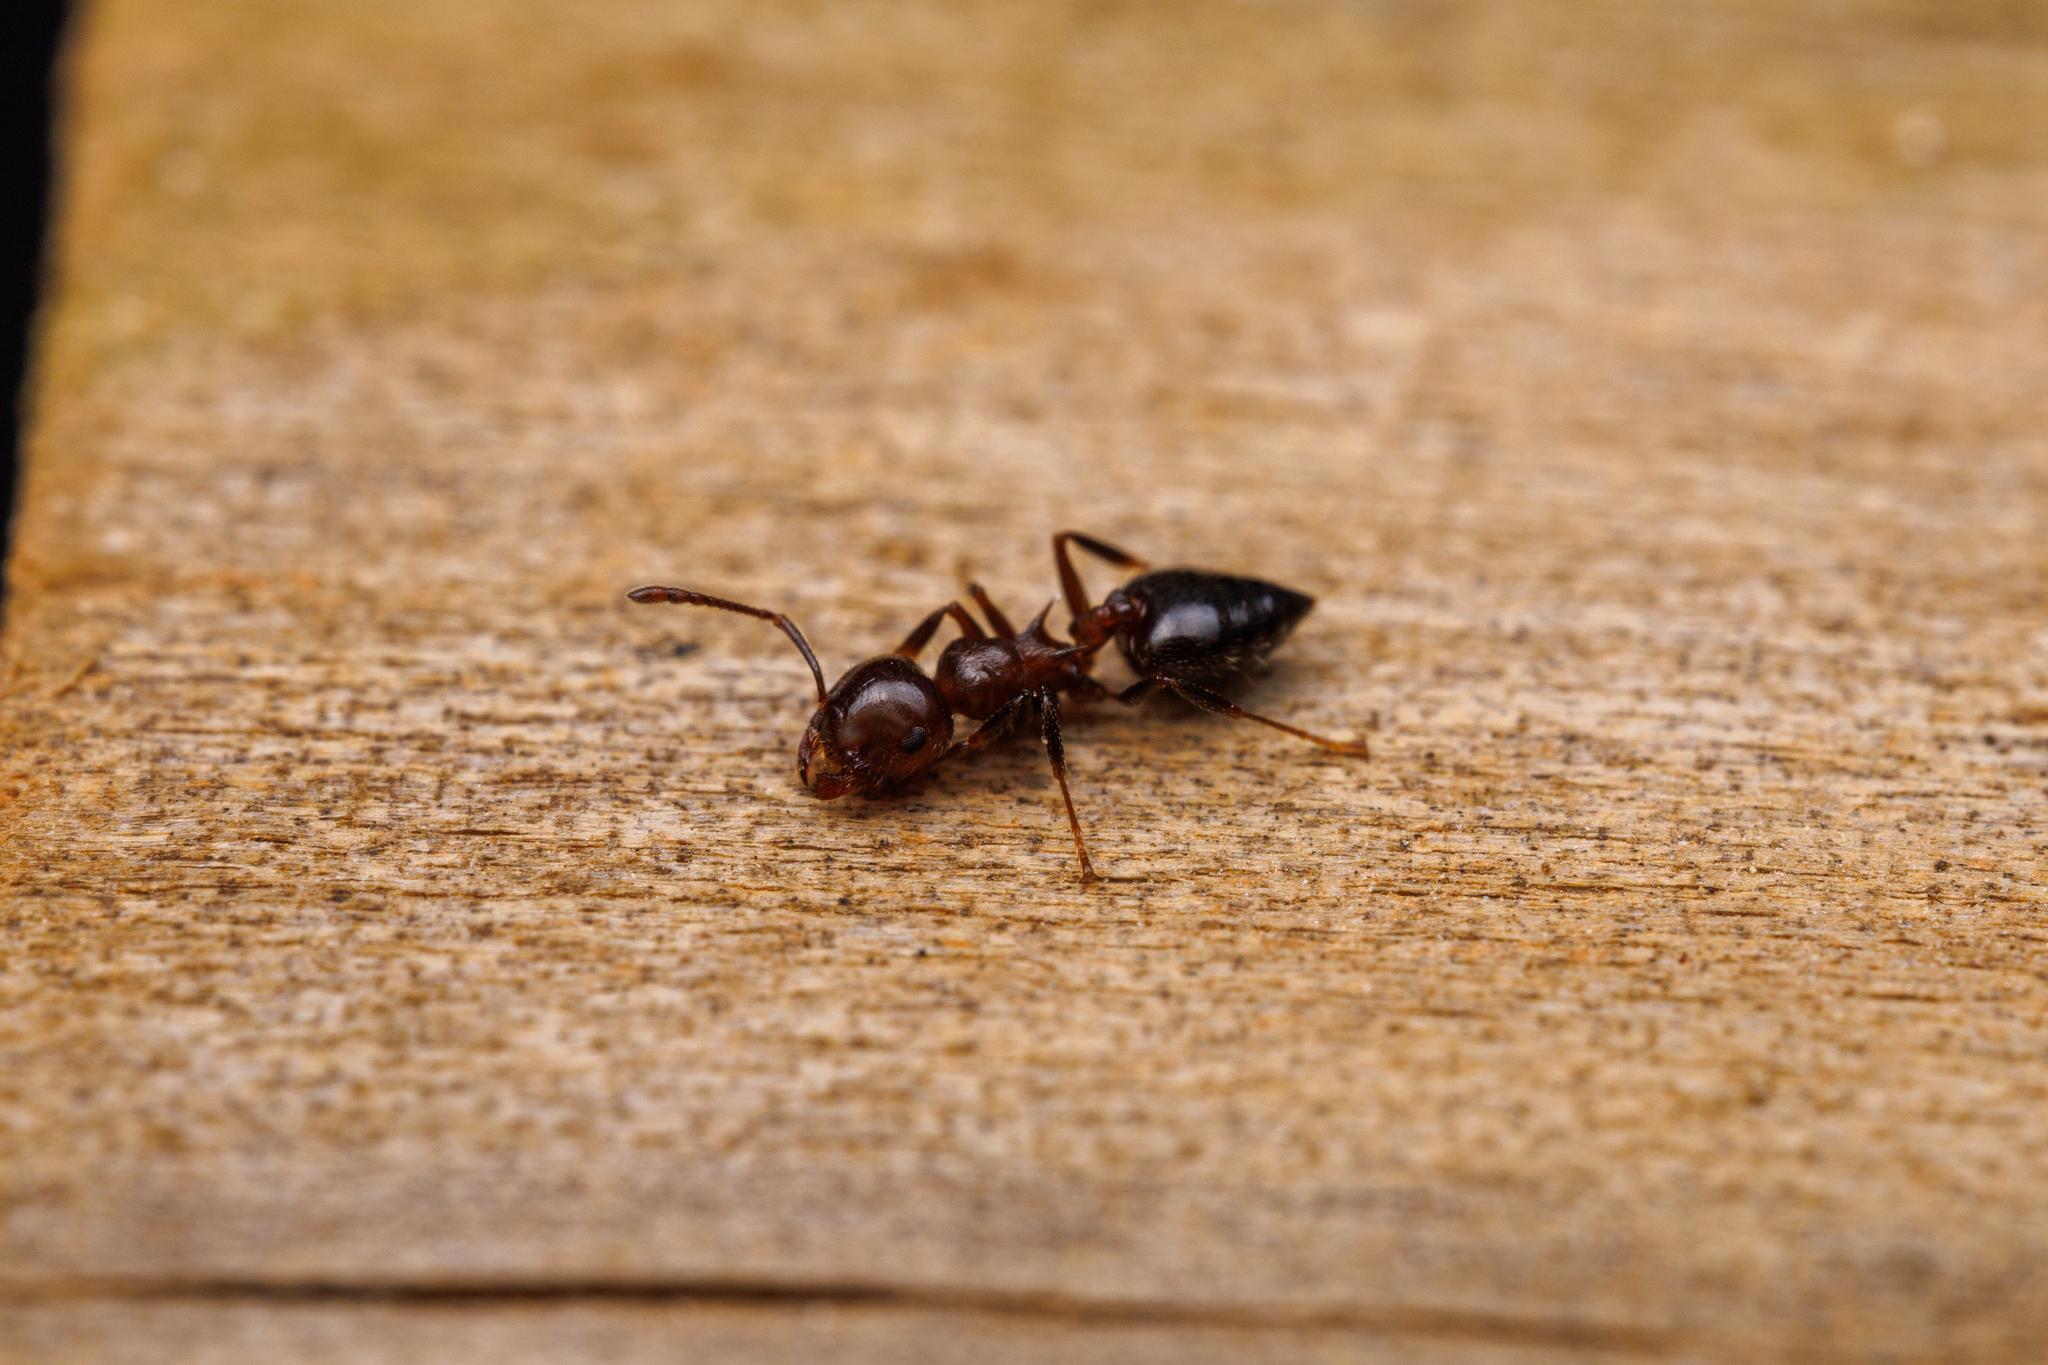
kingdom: Animalia
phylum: Arthropoda
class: Insecta
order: Hymenoptera
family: Formicidae
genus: Crematogaster
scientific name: Crematogaster pilosa
